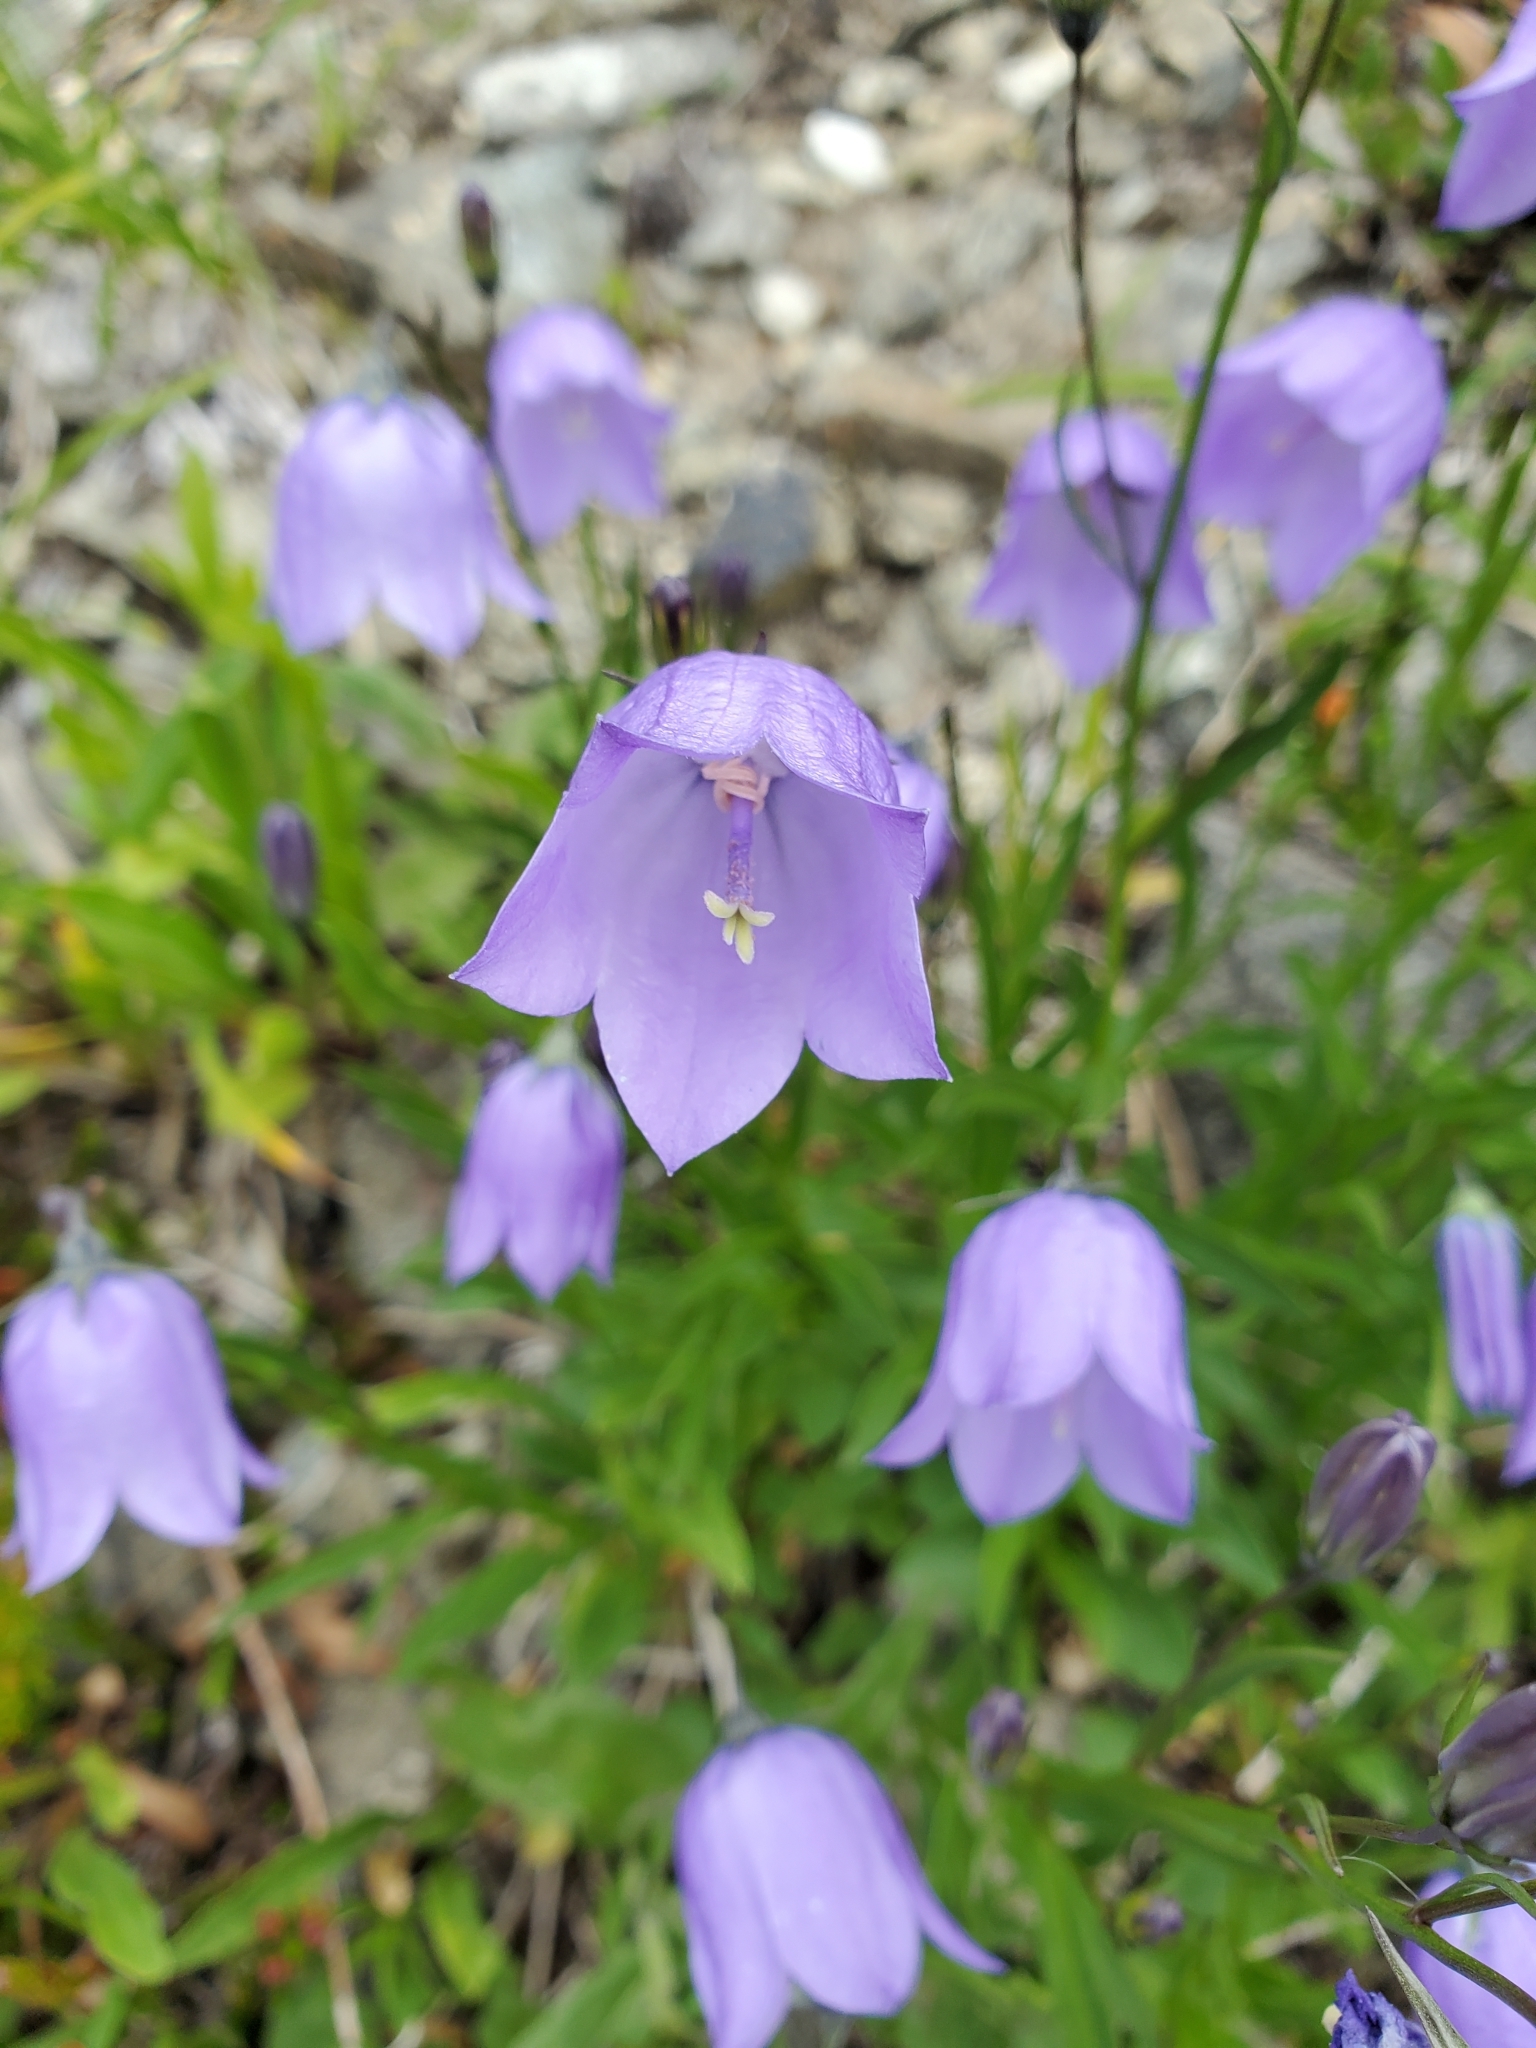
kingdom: Plantae
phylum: Tracheophyta
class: Magnoliopsida
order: Asterales
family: Campanulaceae
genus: Campanula
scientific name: Campanula alaskana
